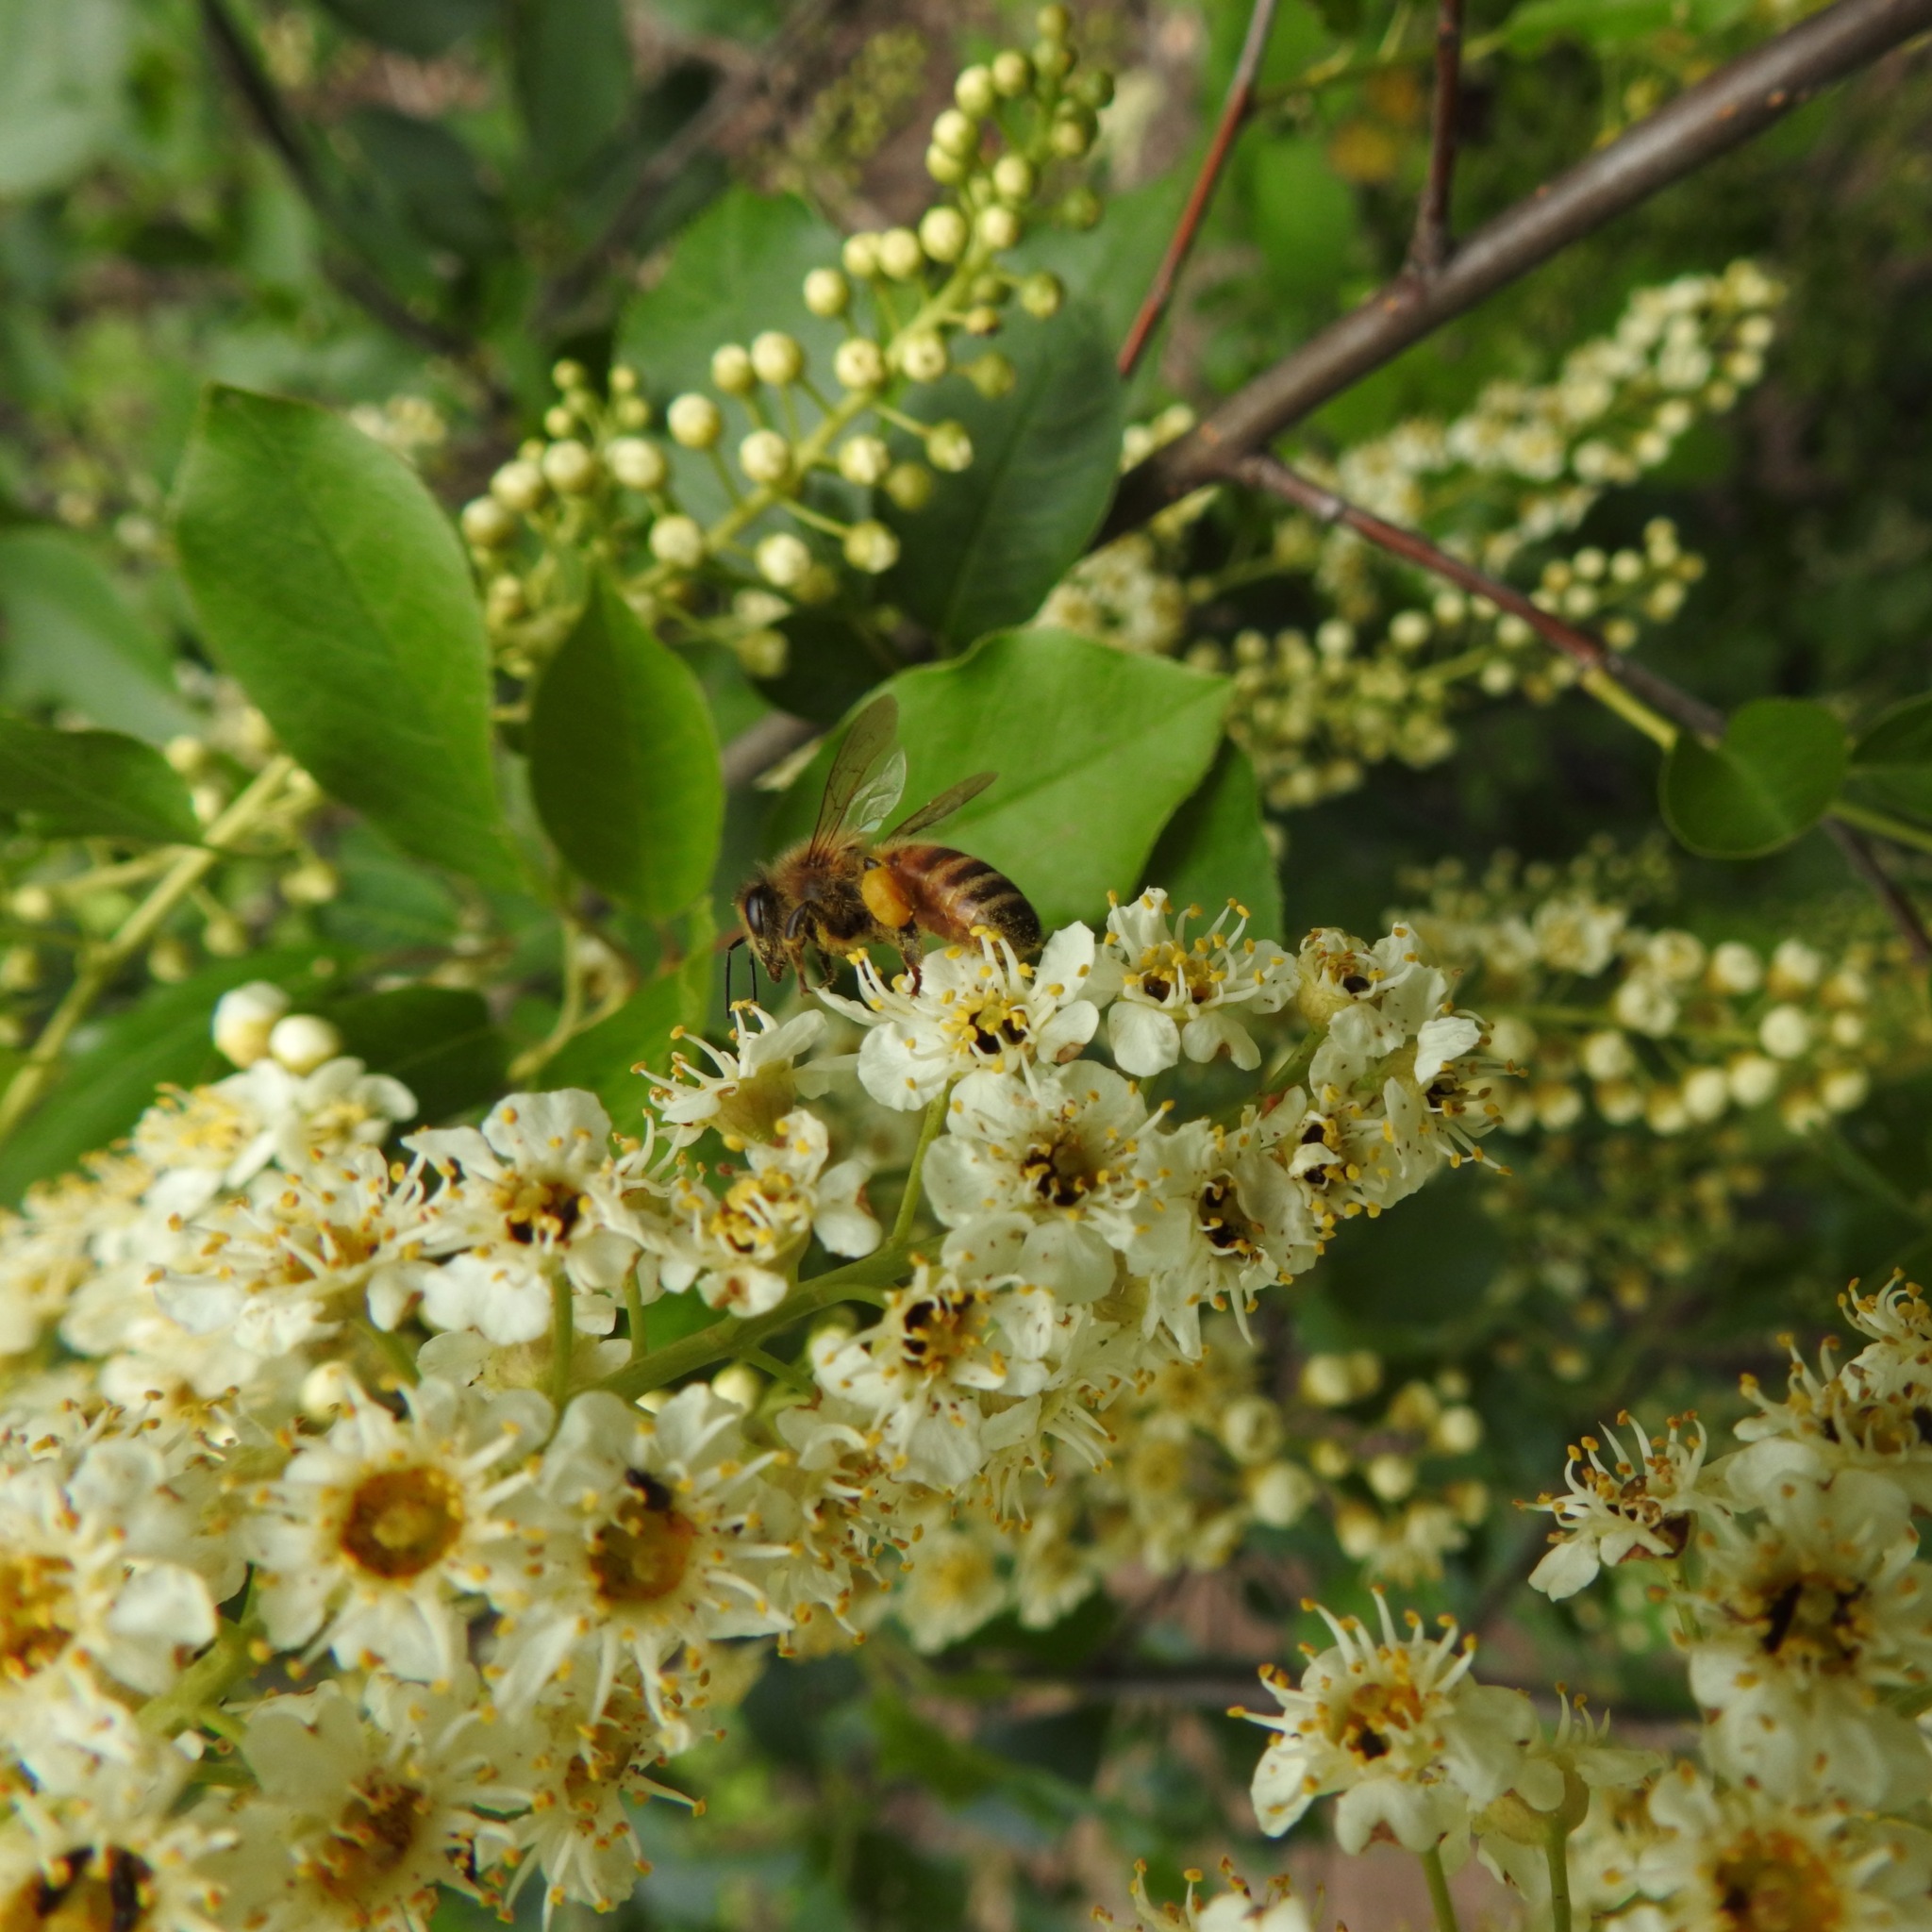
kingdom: Animalia
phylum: Arthropoda
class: Insecta
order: Hymenoptera
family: Apidae
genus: Apis
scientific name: Apis mellifera
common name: Honey bee
